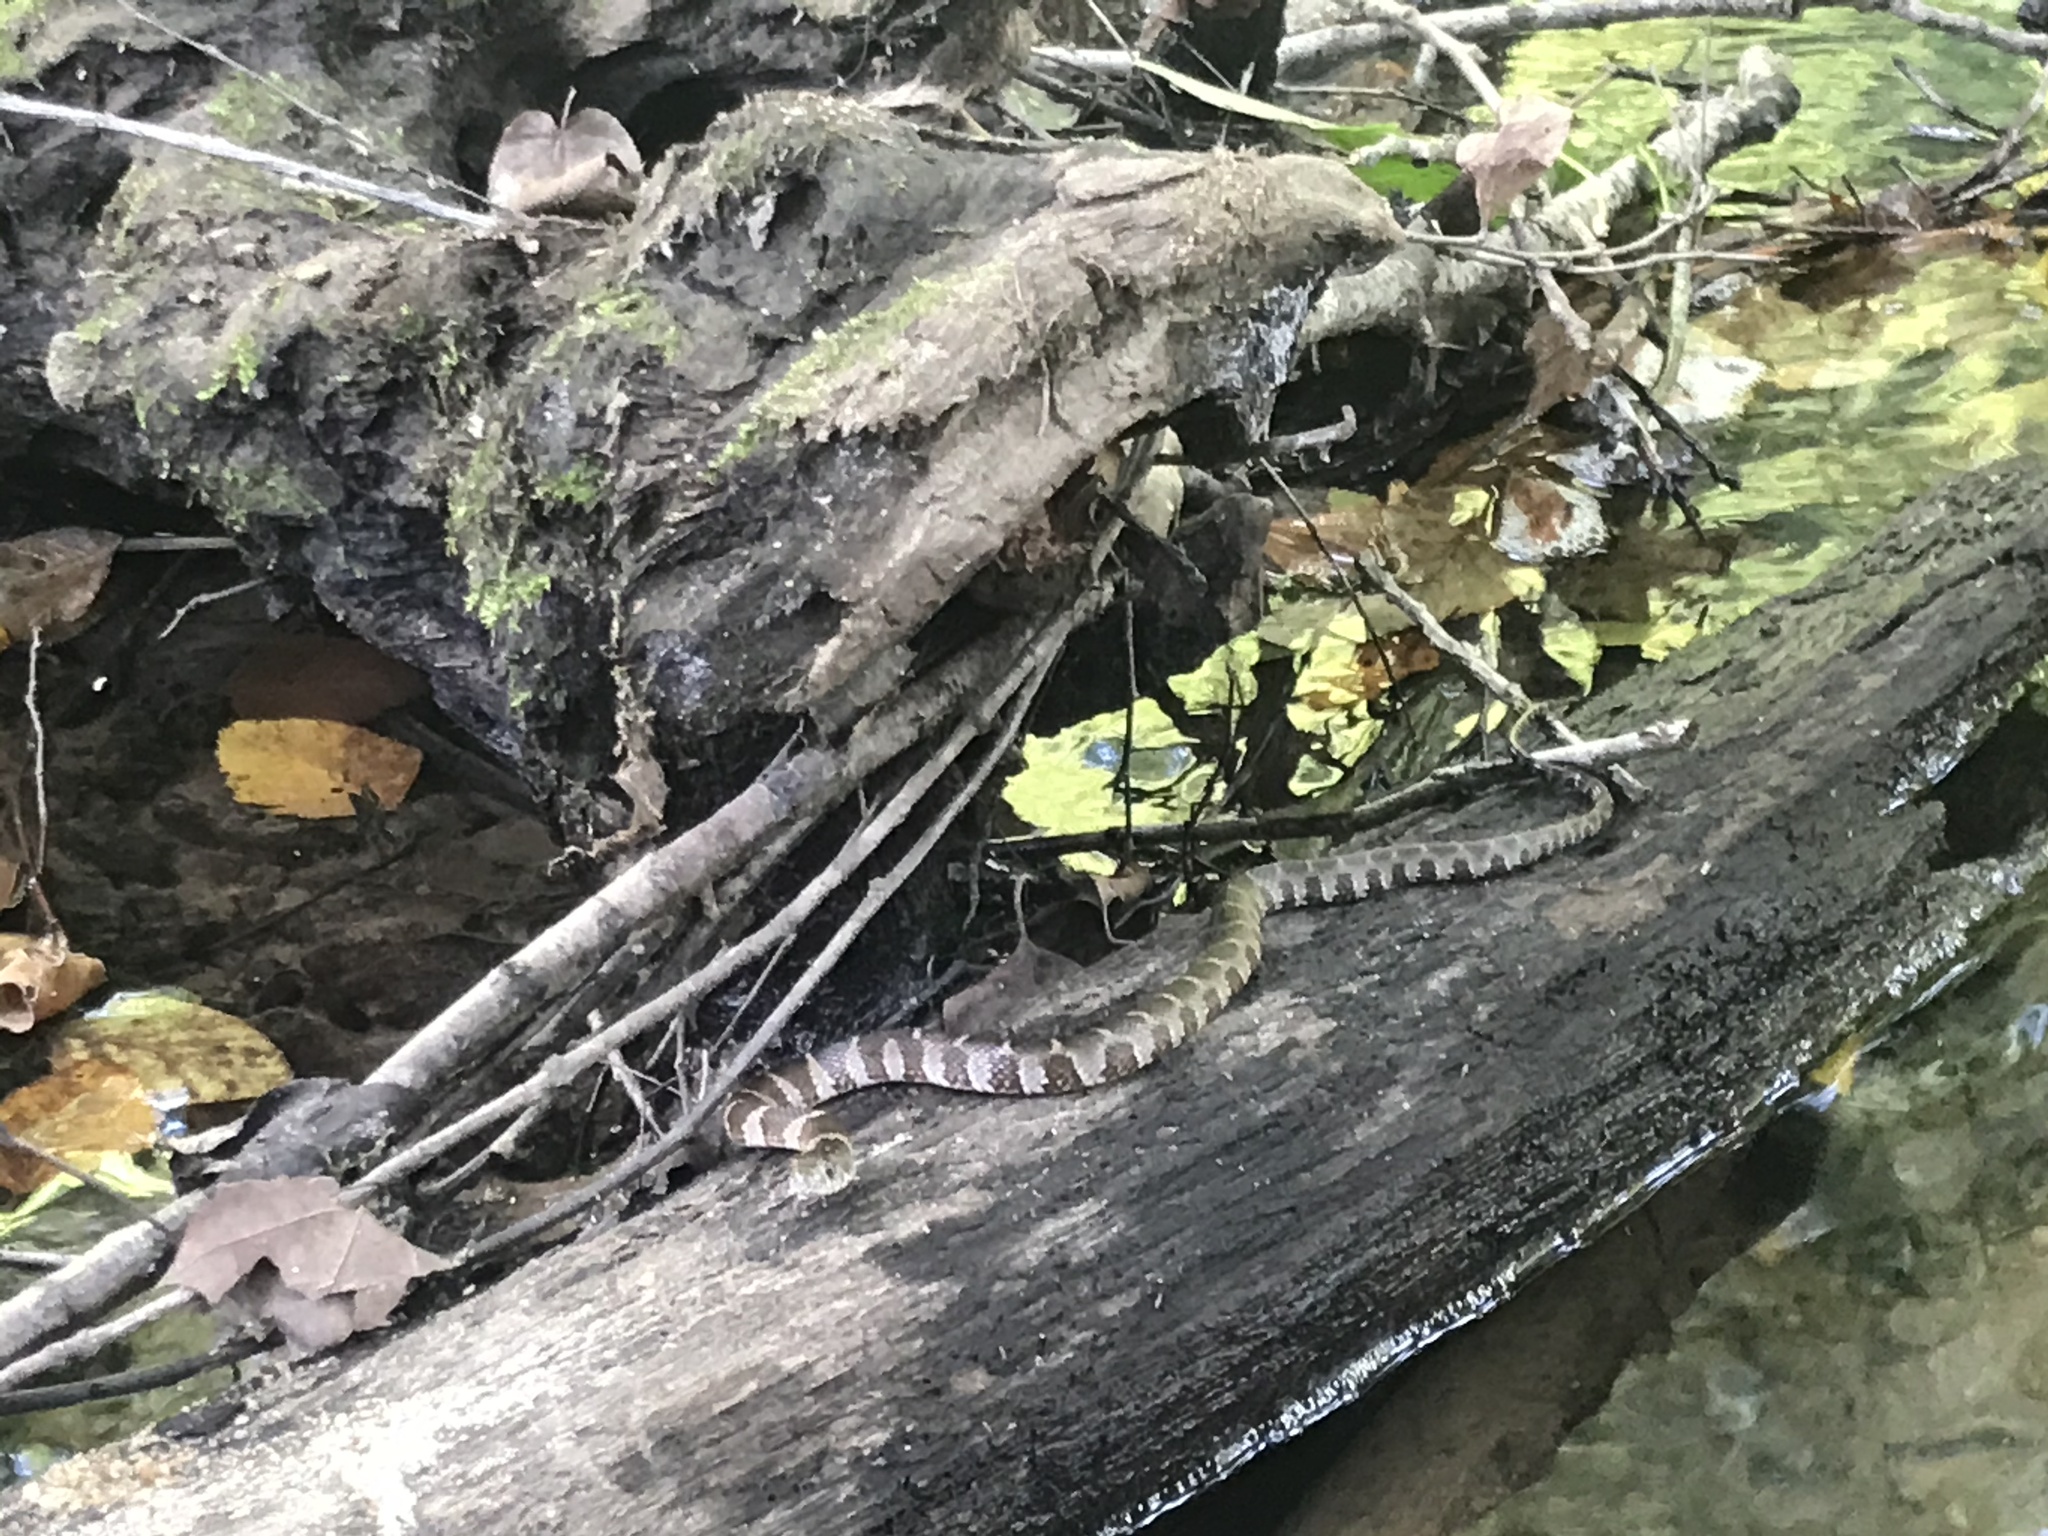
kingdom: Animalia
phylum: Chordata
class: Squamata
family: Colubridae
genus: Nerodia
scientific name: Nerodia sipedon
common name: Northern water snake
